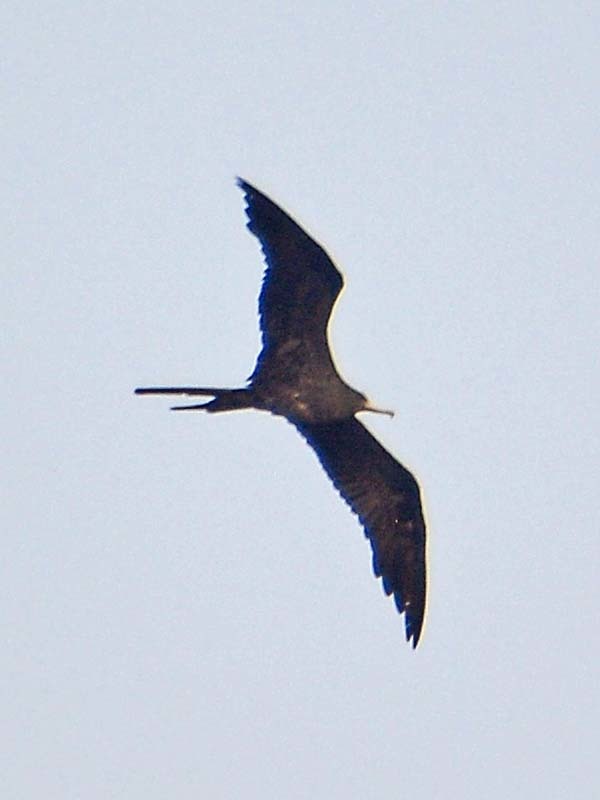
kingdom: Animalia
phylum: Chordata
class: Aves
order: Suliformes
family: Fregatidae
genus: Fregata
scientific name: Fregata magnificens
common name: Magnificent frigatebird
